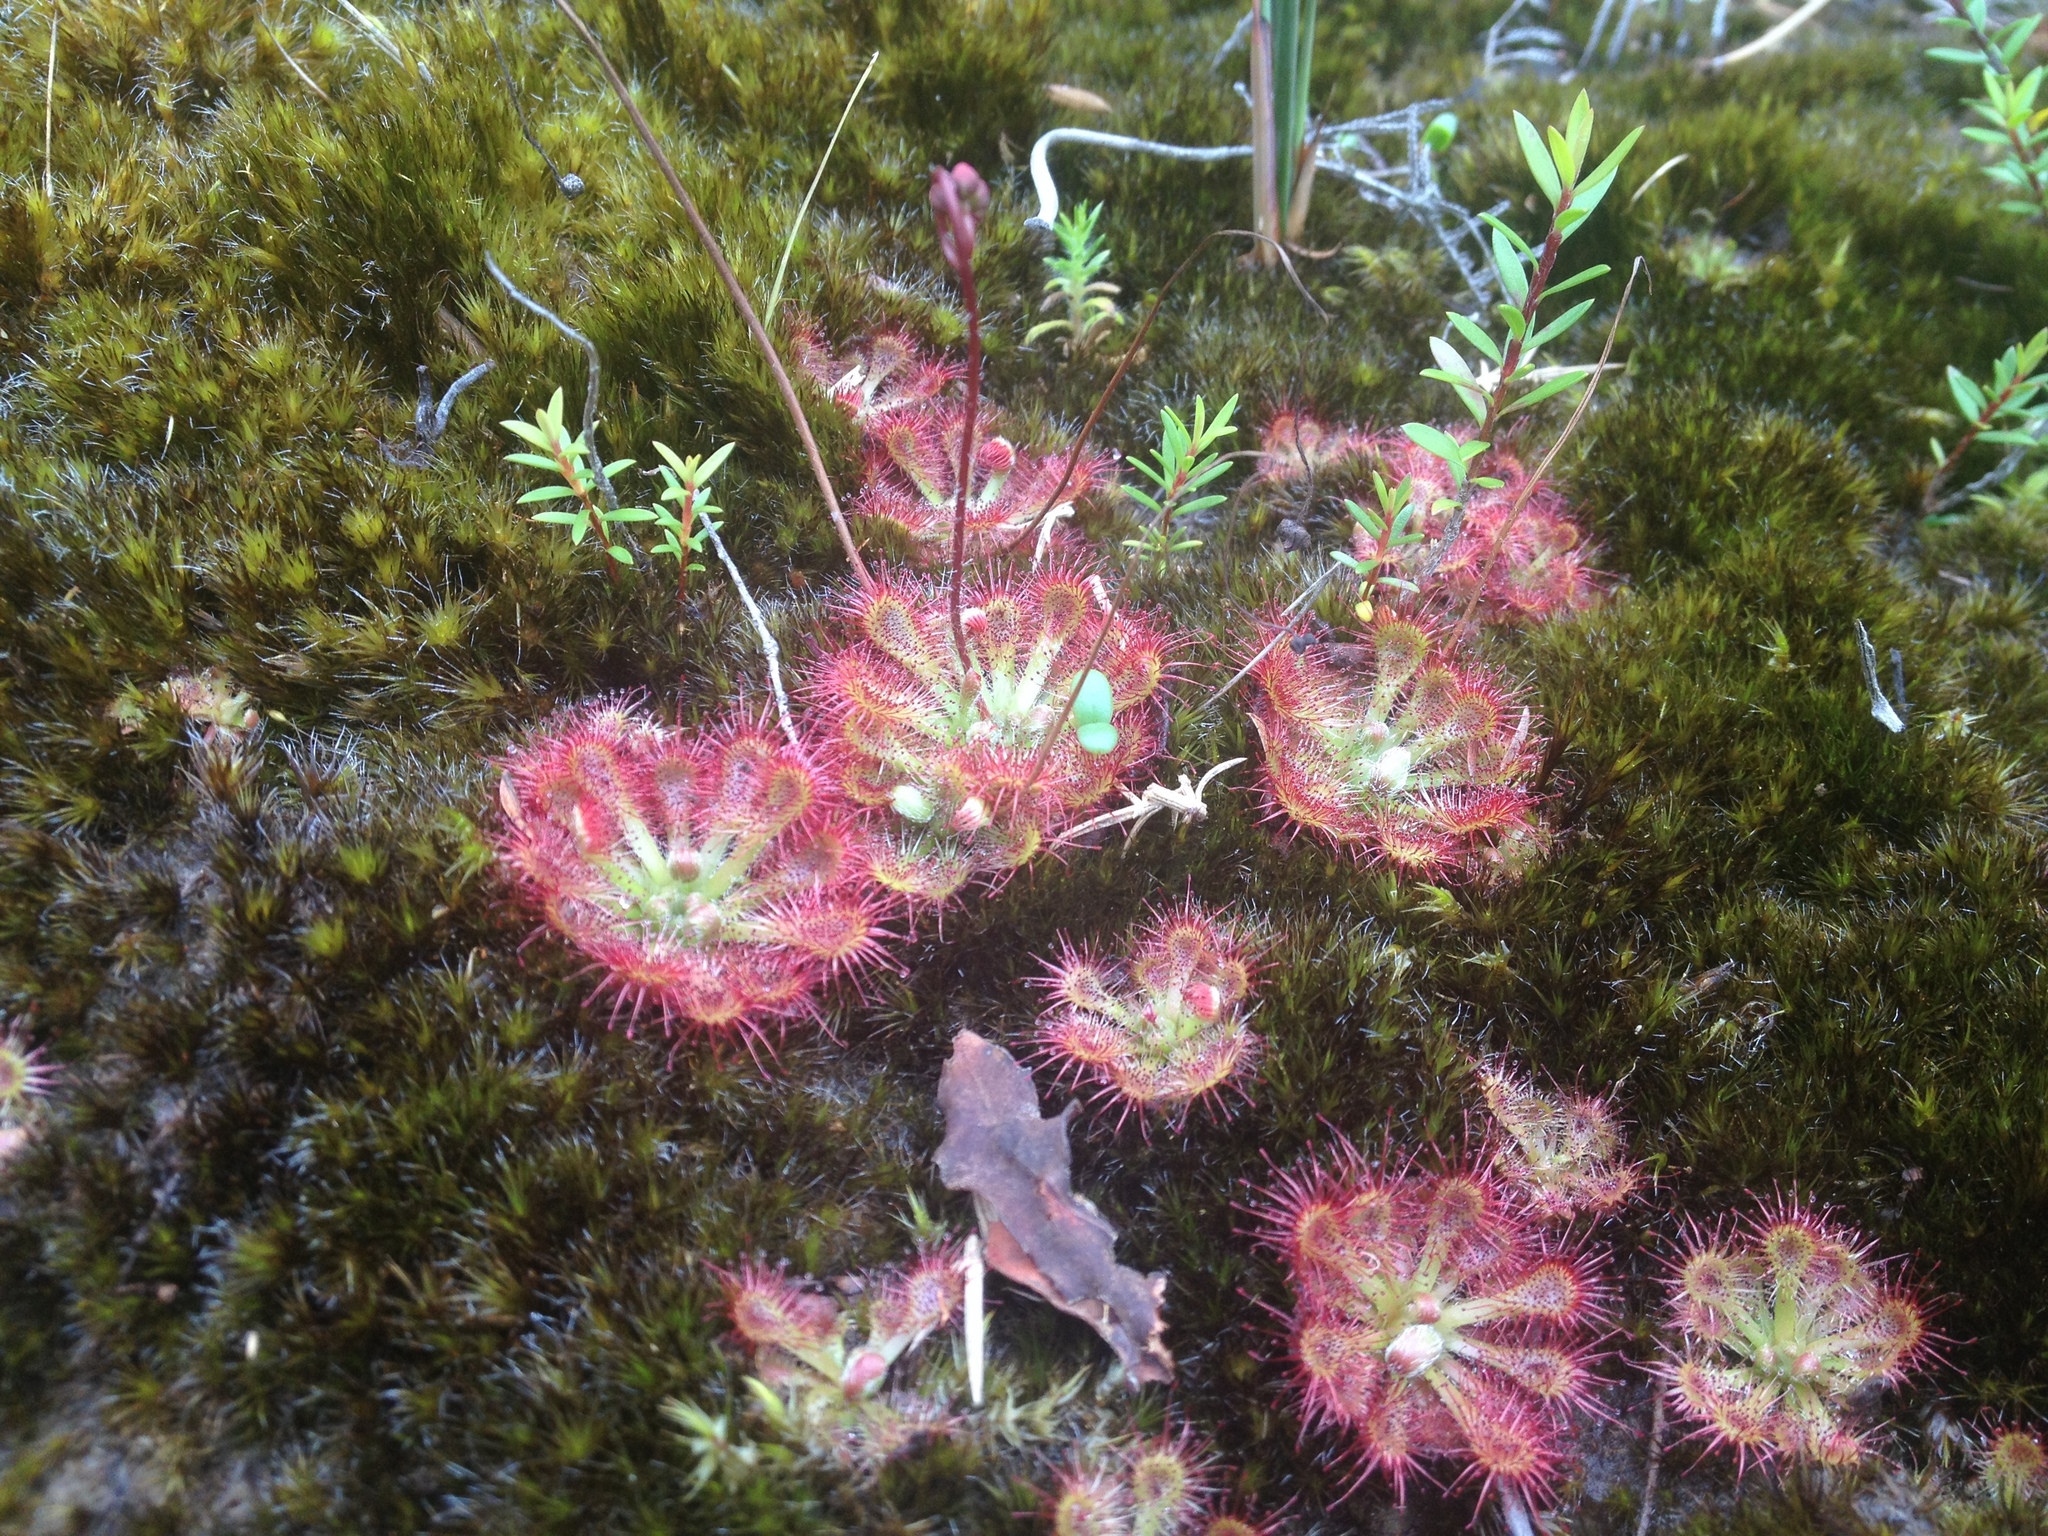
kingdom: Plantae
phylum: Tracheophyta
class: Magnoliopsida
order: Caryophyllales
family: Droseraceae
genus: Drosera
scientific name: Drosera spatulata
